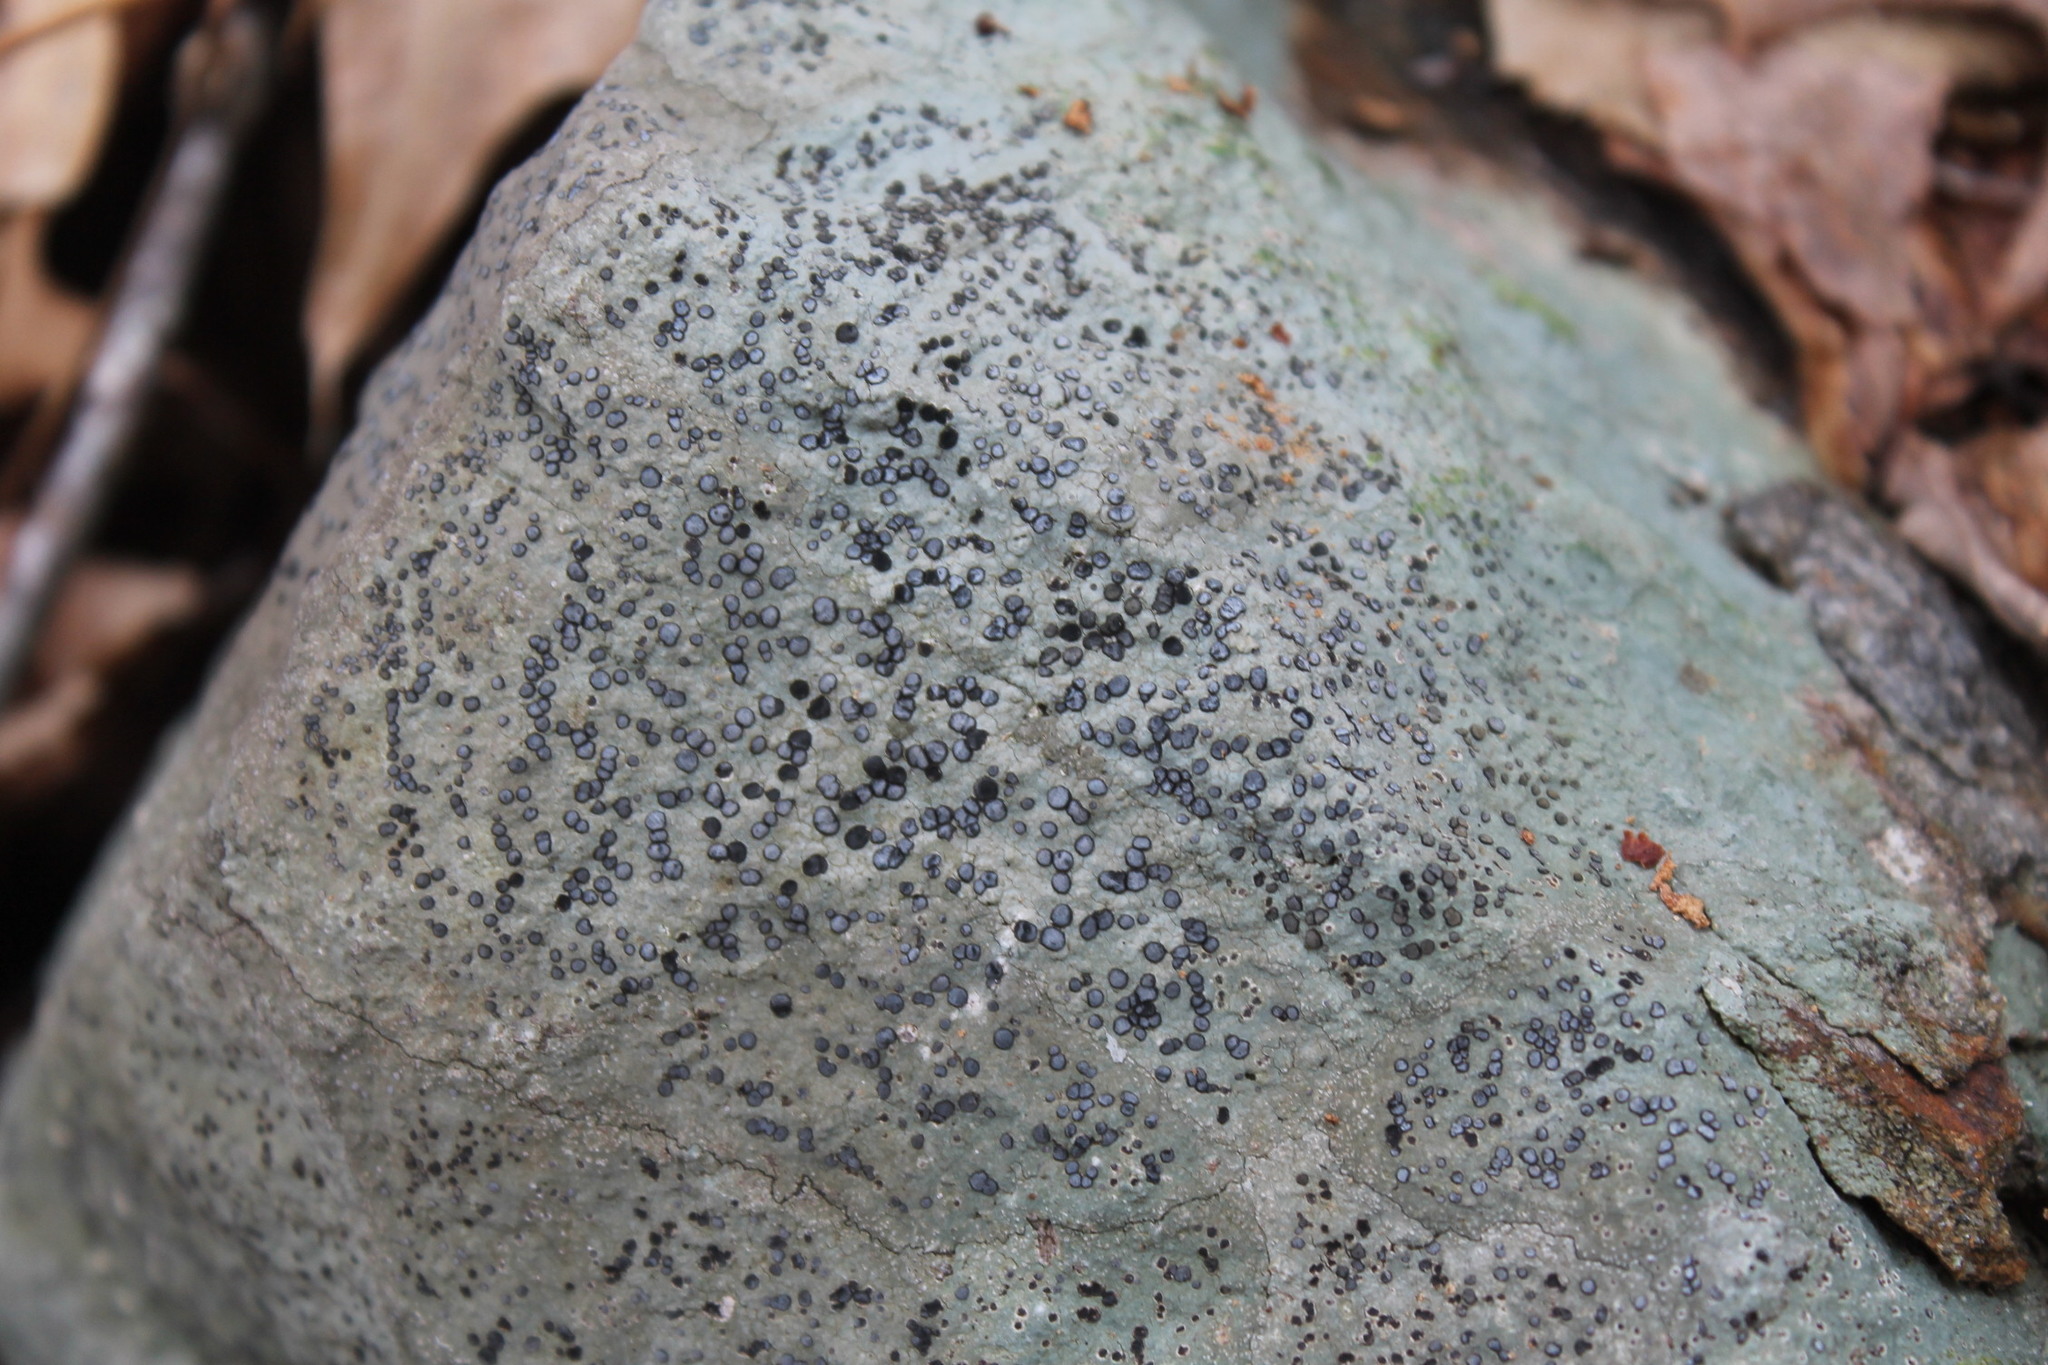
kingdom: Fungi
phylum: Ascomycota
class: Lecanoromycetes
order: Lecideales
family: Lecideaceae
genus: Porpidia
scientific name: Porpidia albocaerulescens
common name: Smokey-eyed boulder lichen
